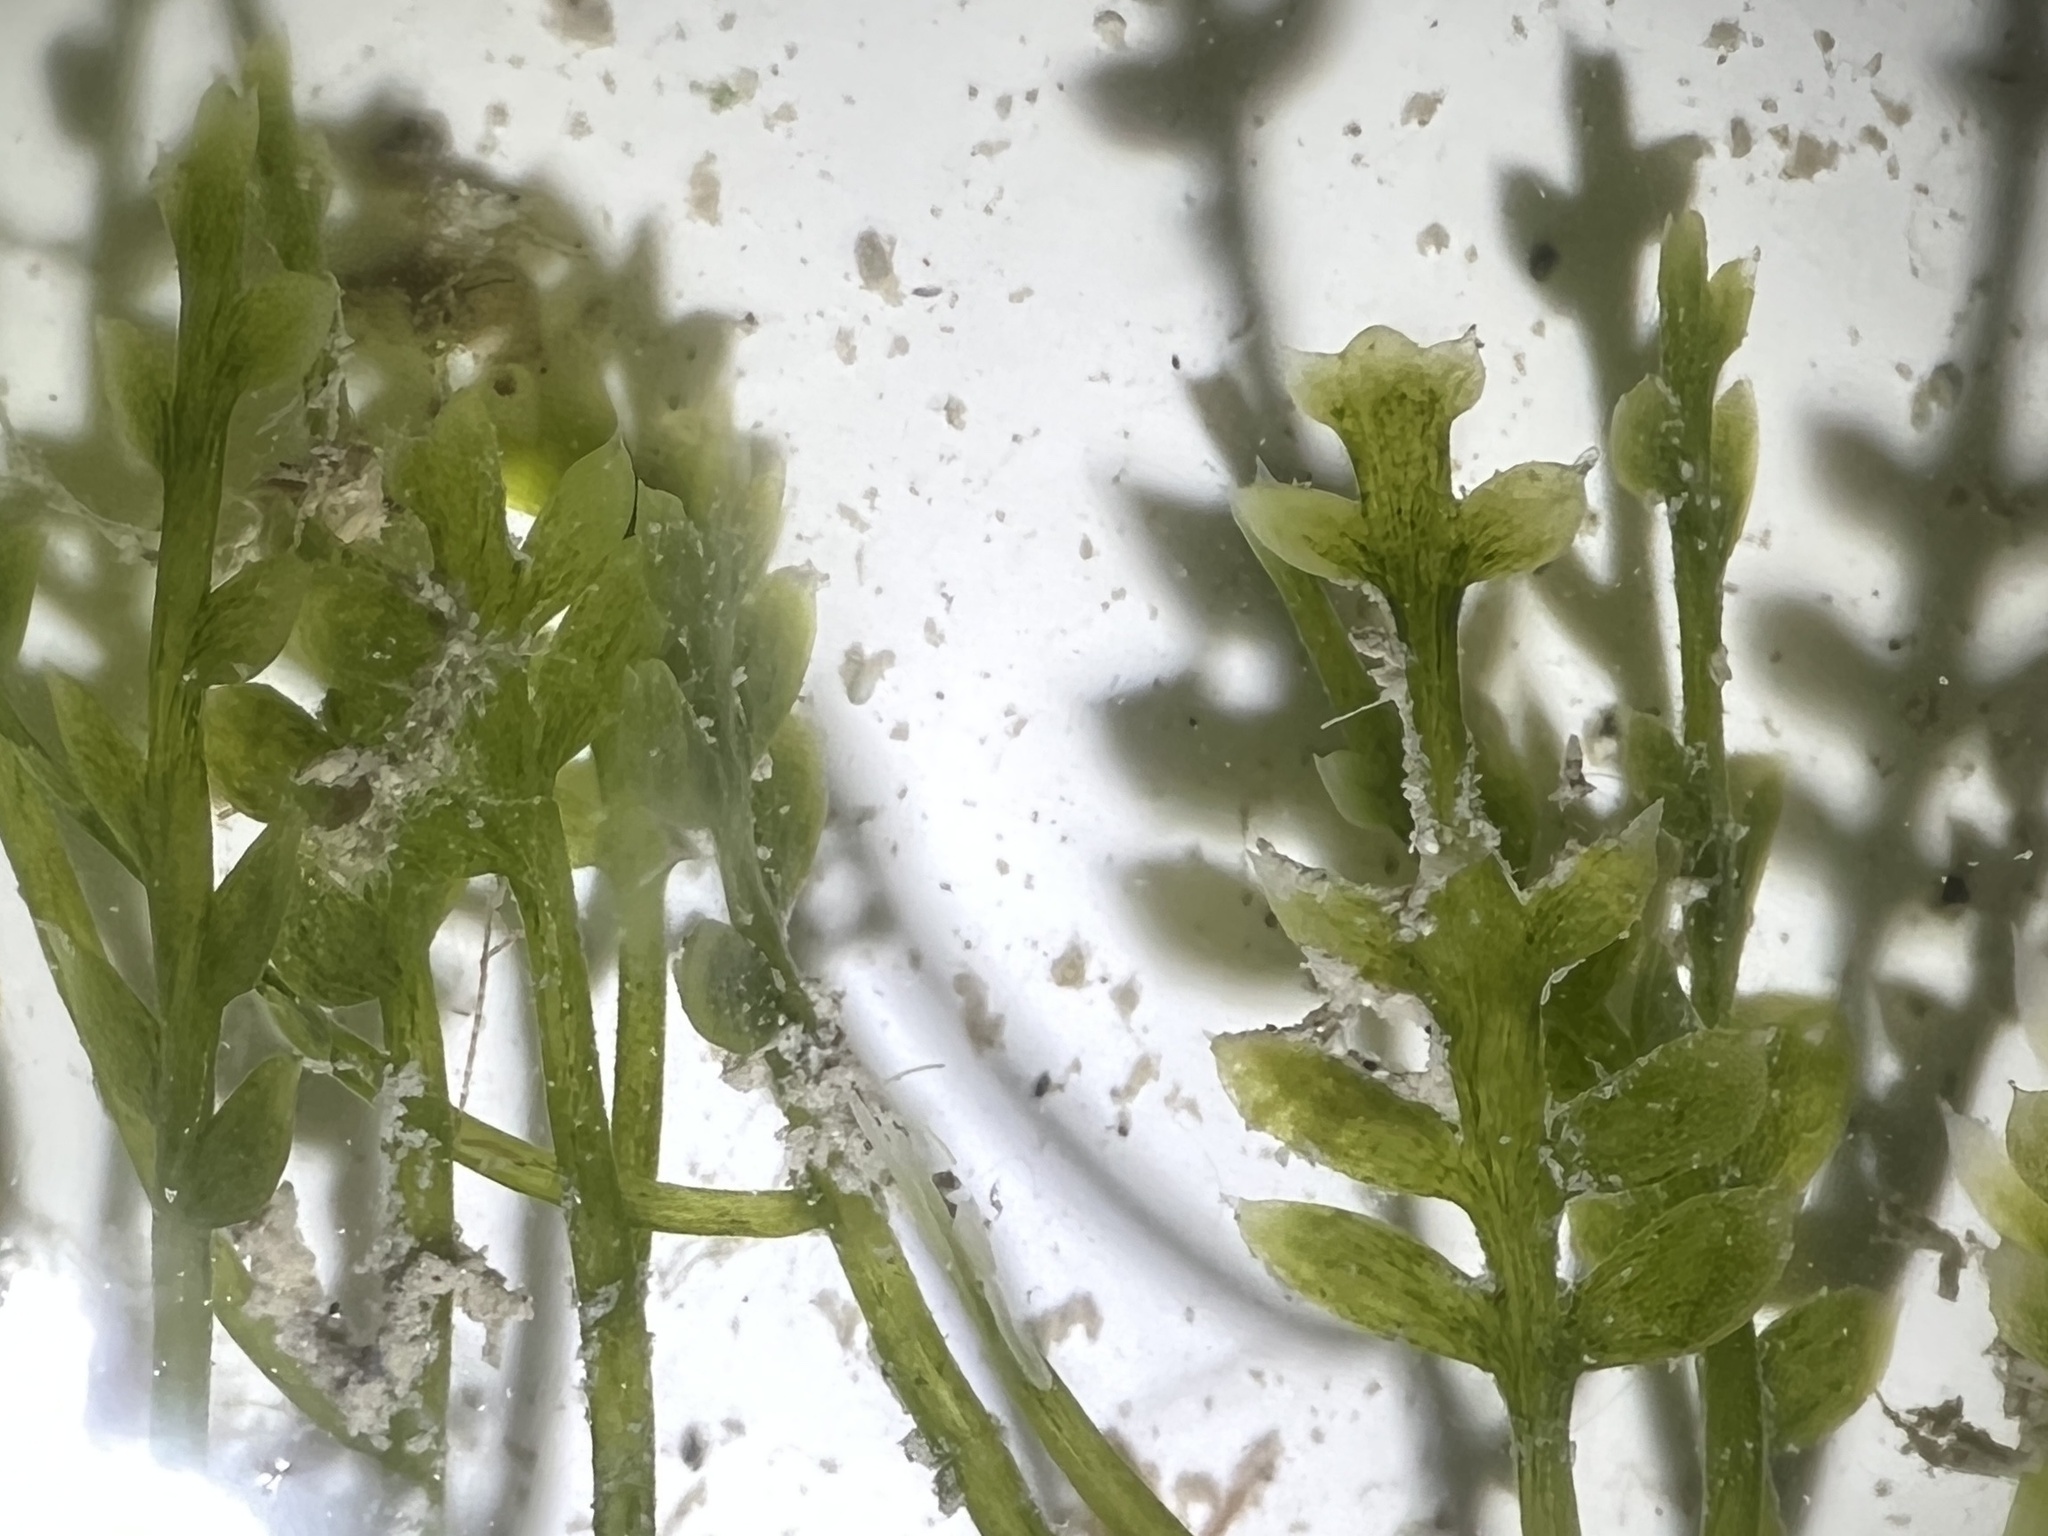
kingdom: Plantae
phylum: Chlorophyta
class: Ulvophyceae
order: Bryopsidales
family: Caulerpaceae
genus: Caulerpa
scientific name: Caulerpa mexicana
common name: Flat green feather algae
